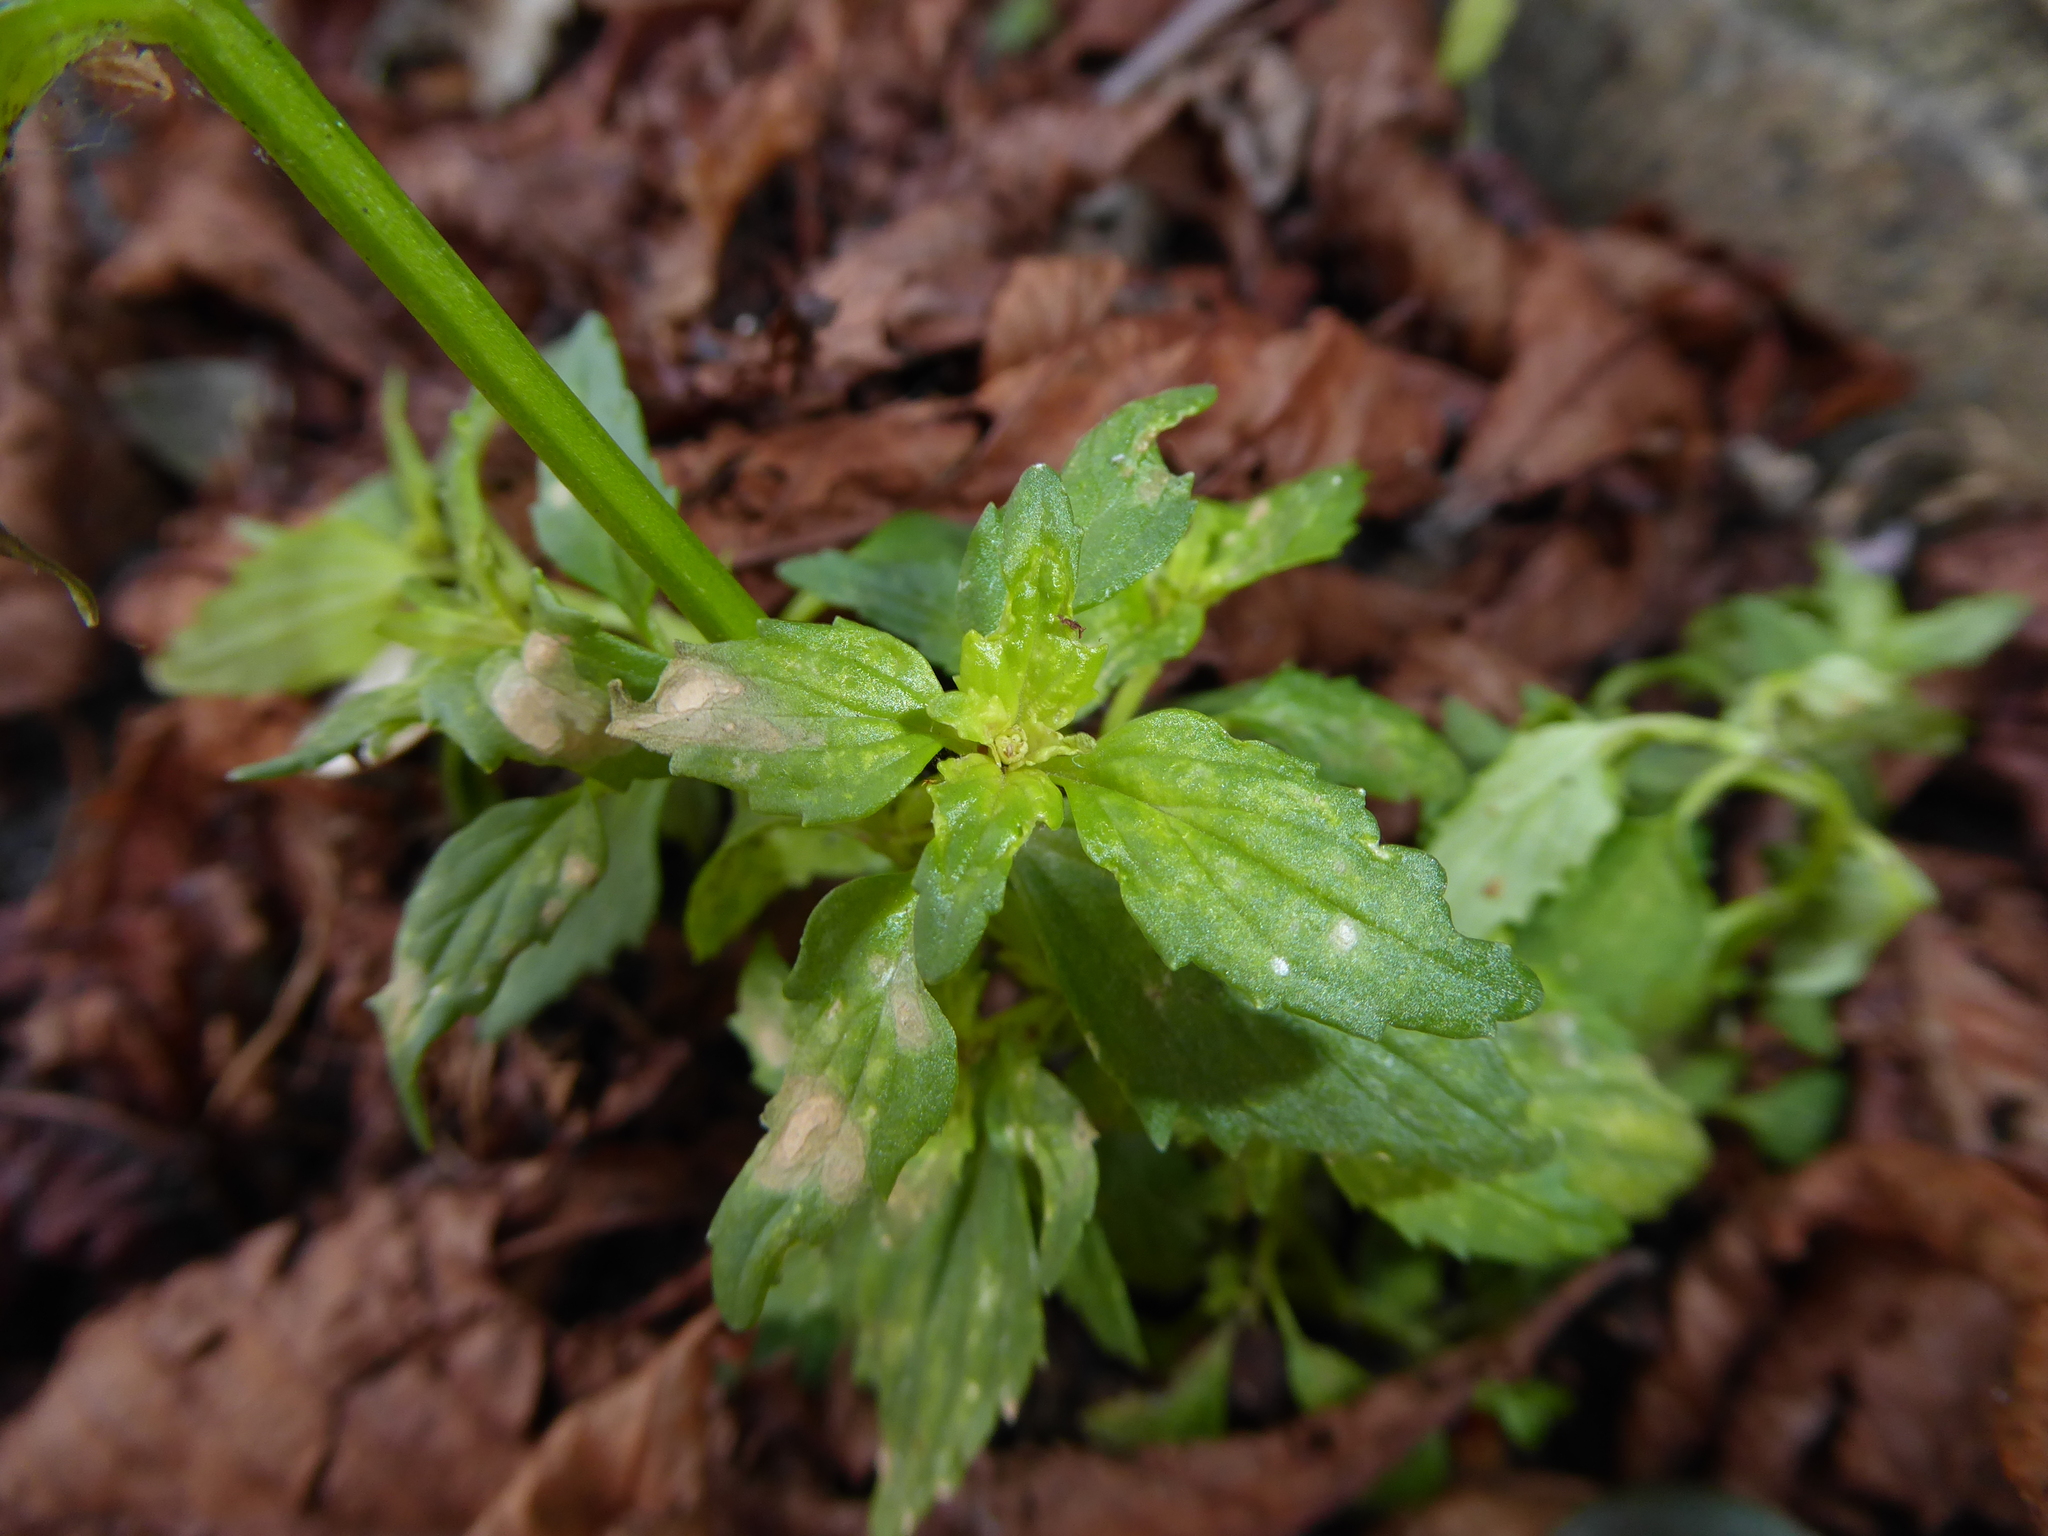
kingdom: Plantae
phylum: Tracheophyta
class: Magnoliopsida
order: Lamiales
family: Scrophulariaceae
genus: Nemesia
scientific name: Nemesia
